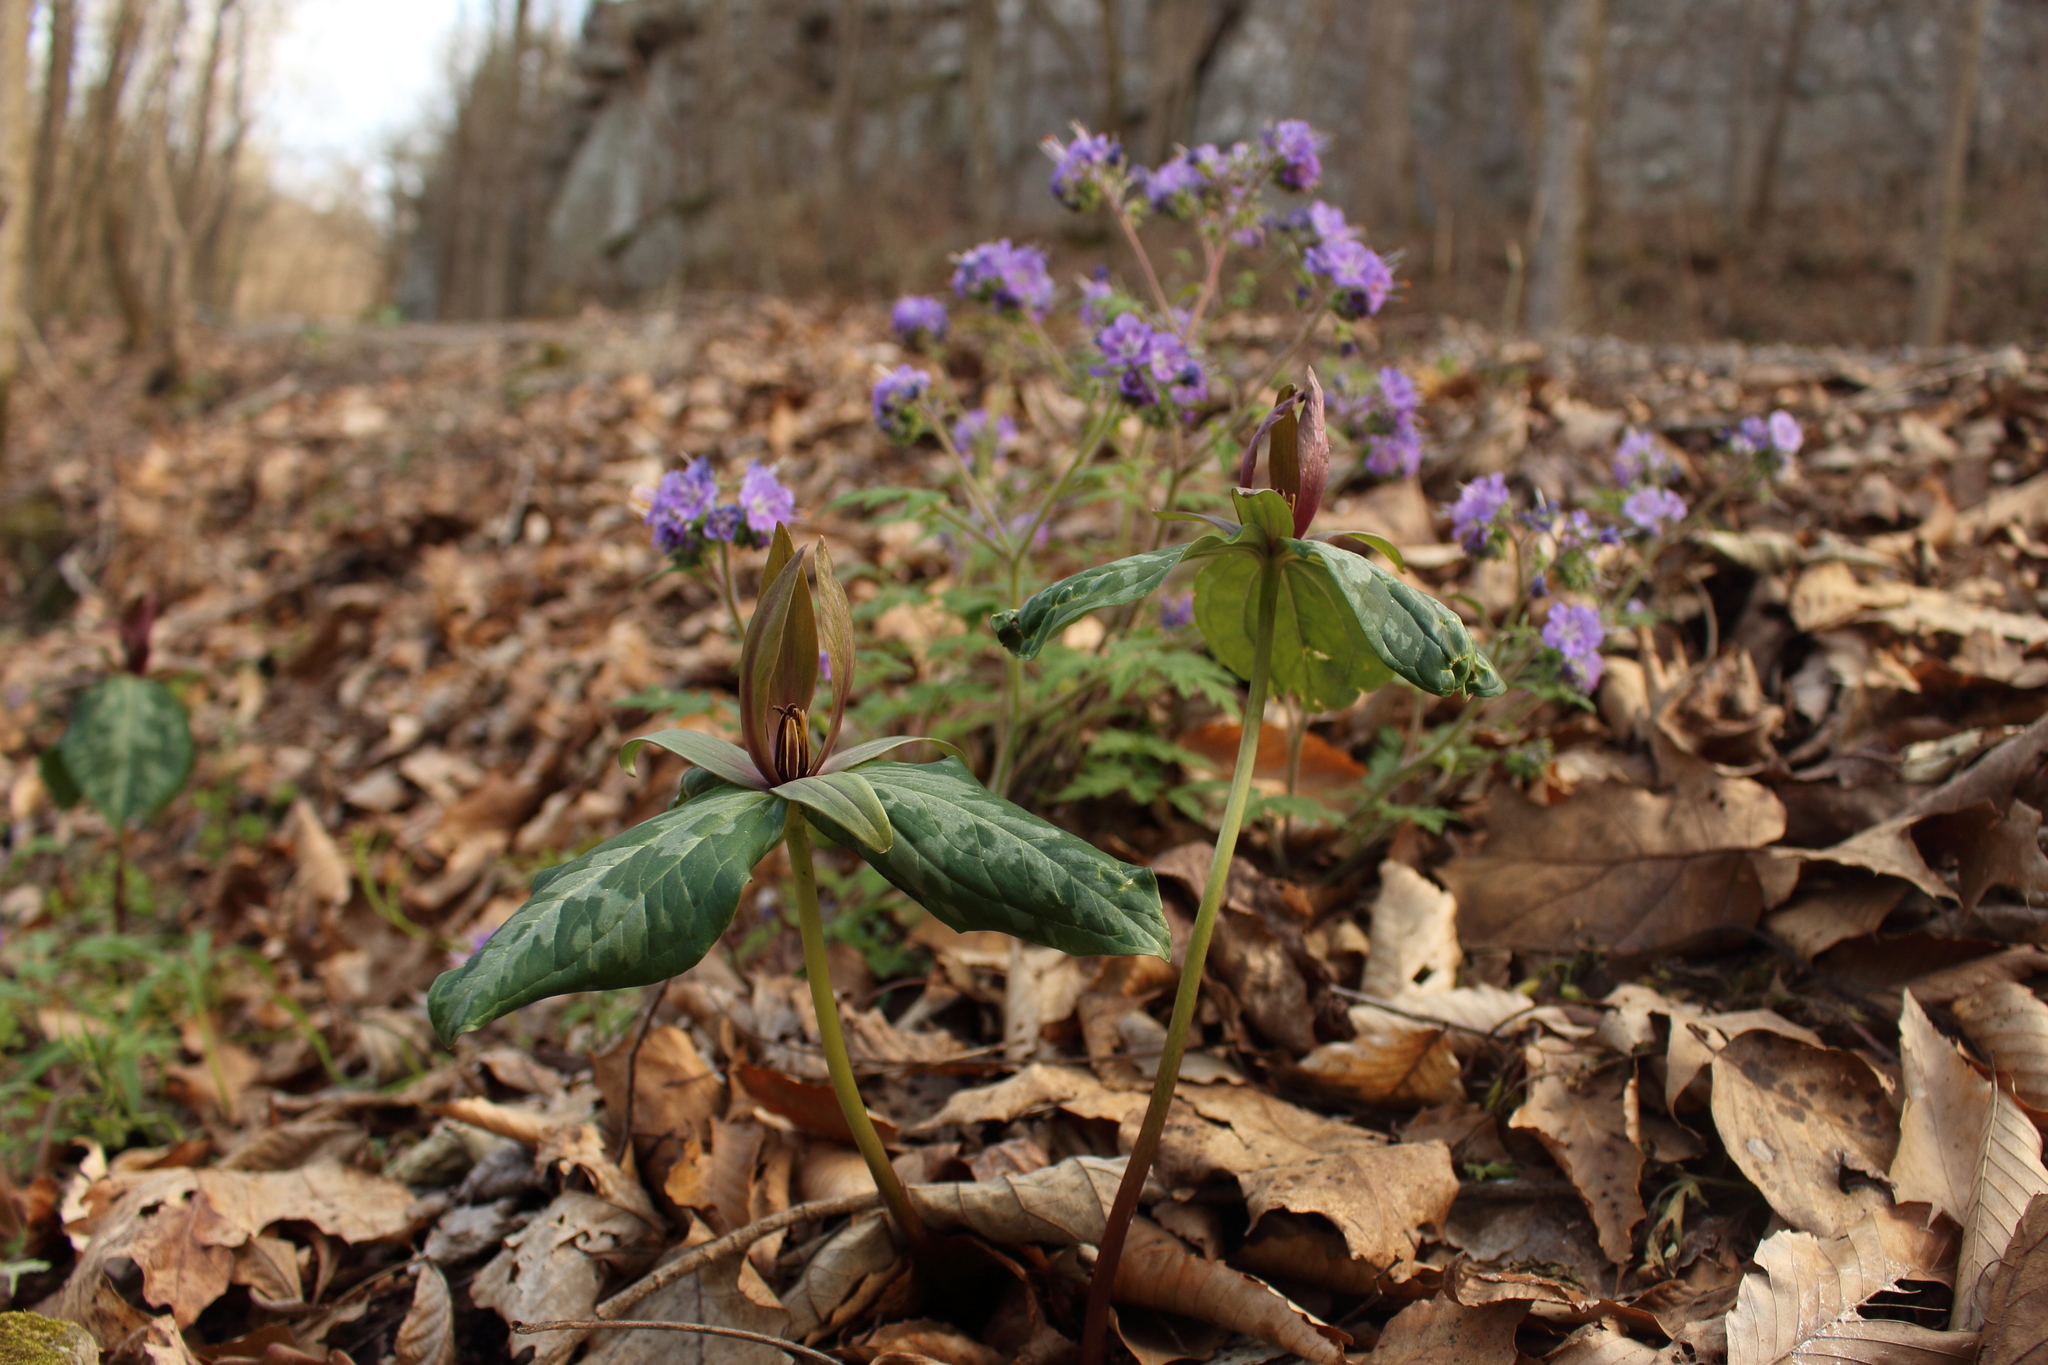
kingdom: Plantae
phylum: Tracheophyta
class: Liliopsida
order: Liliales
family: Melanthiaceae
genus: Trillium
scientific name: Trillium cuneatum
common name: Cuneate trillium
